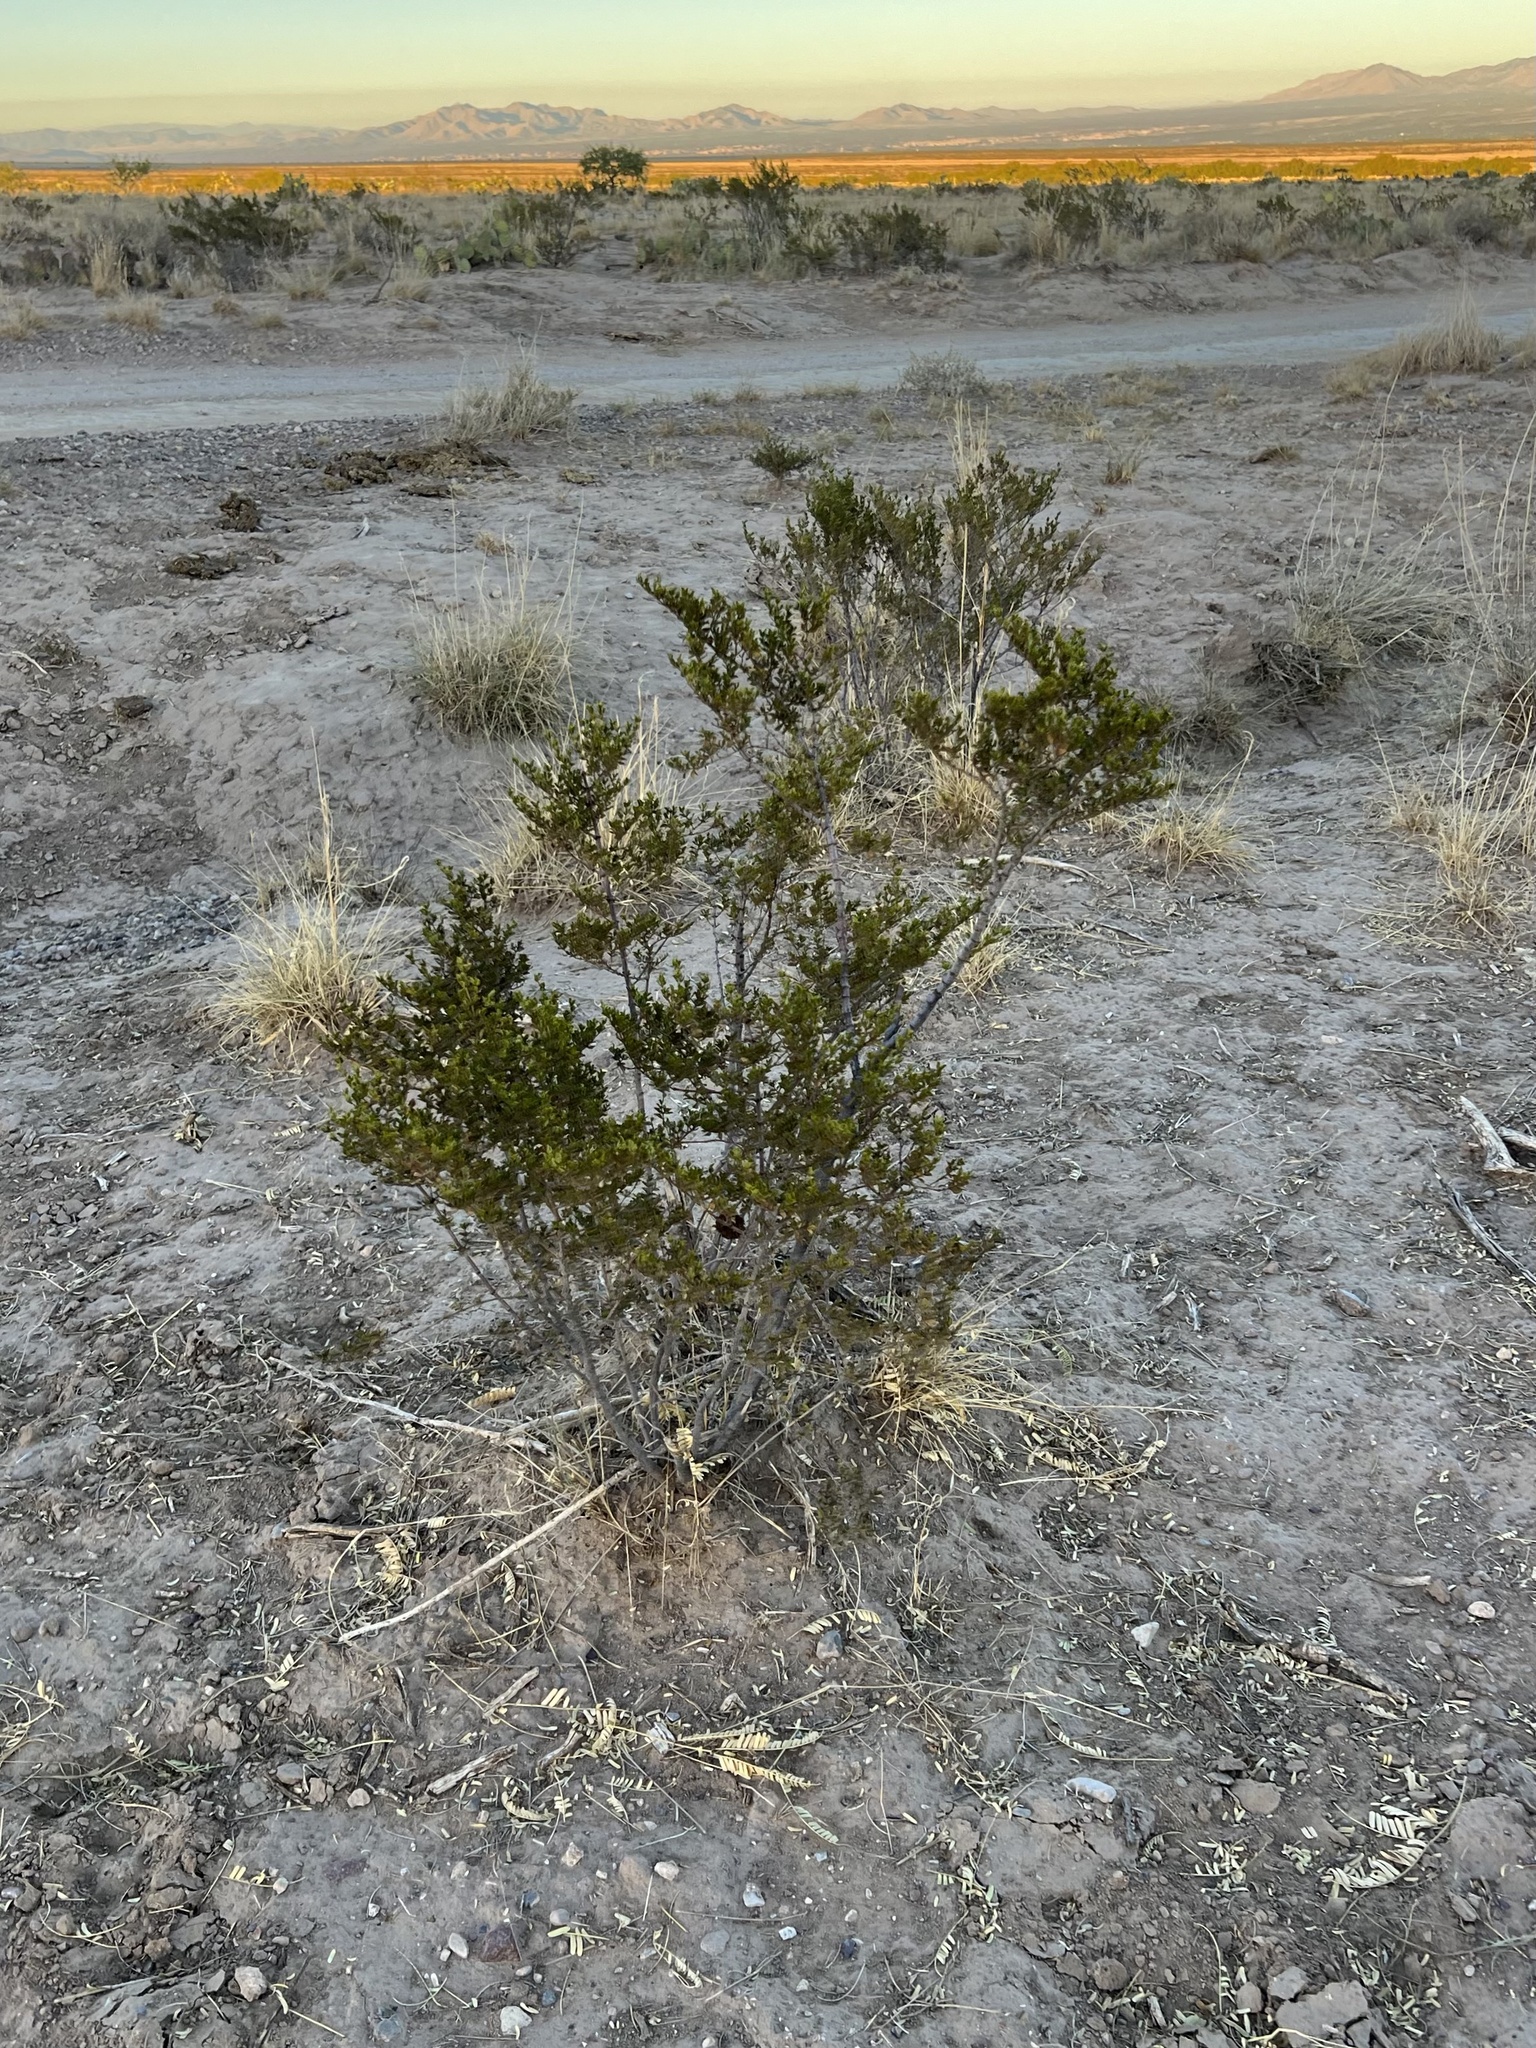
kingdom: Plantae
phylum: Tracheophyta
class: Magnoliopsida
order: Zygophyllales
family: Zygophyllaceae
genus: Larrea
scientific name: Larrea tridentata
